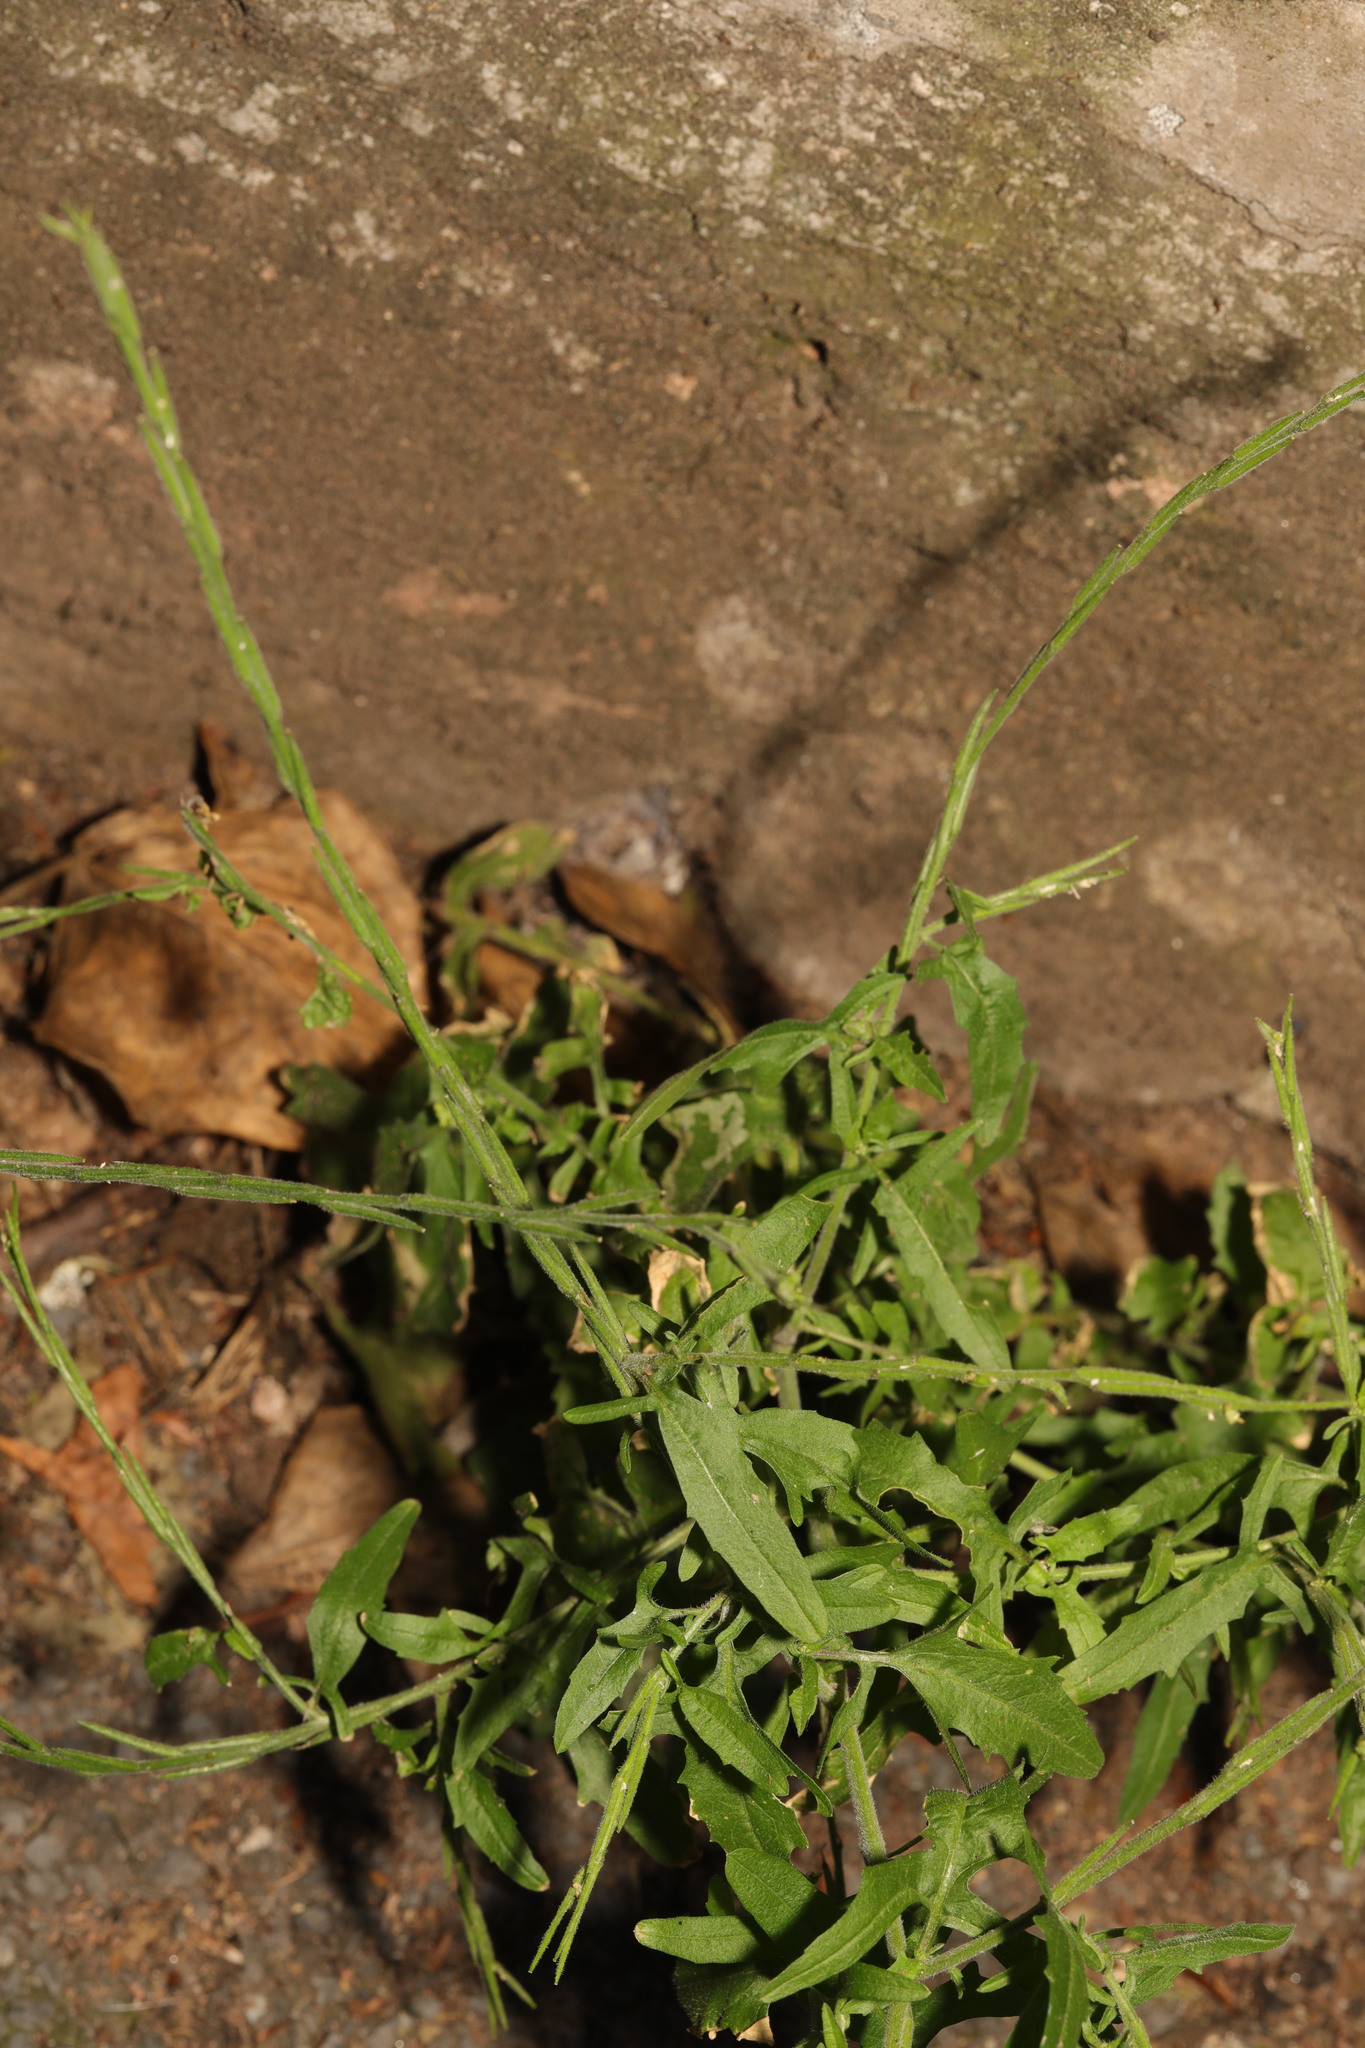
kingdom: Plantae
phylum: Tracheophyta
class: Magnoliopsida
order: Brassicales
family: Brassicaceae
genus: Sisymbrium
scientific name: Sisymbrium officinale
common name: Hedge mustard
